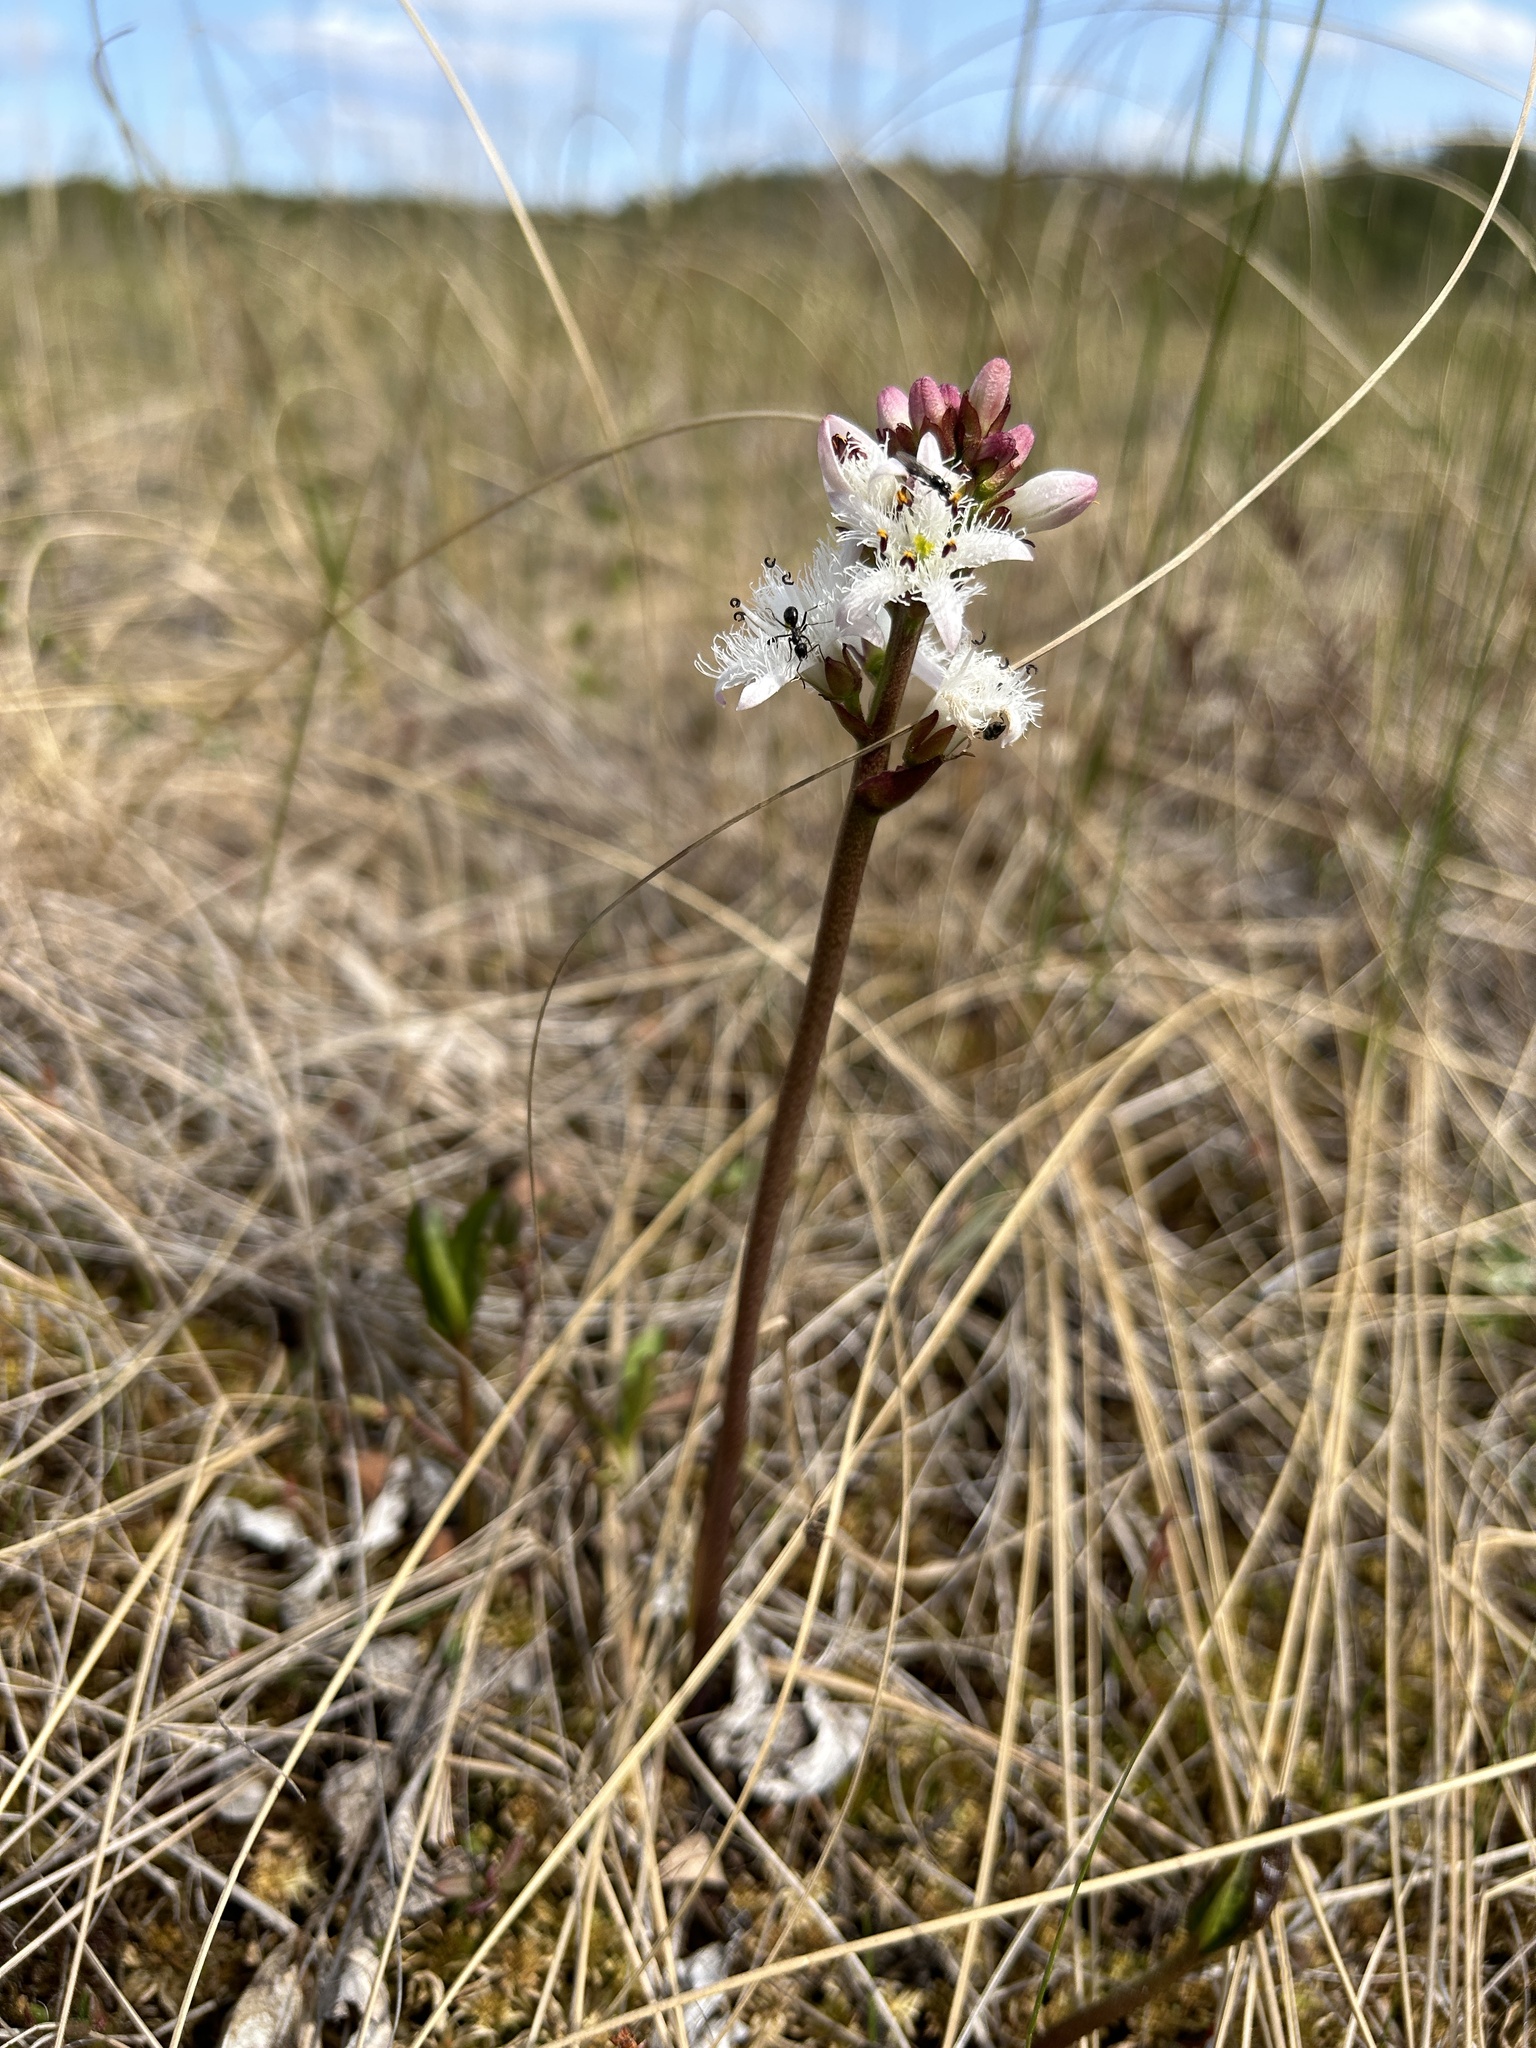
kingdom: Plantae
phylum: Tracheophyta
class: Magnoliopsida
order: Asterales
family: Menyanthaceae
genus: Menyanthes
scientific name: Menyanthes trifoliata
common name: Bogbean
